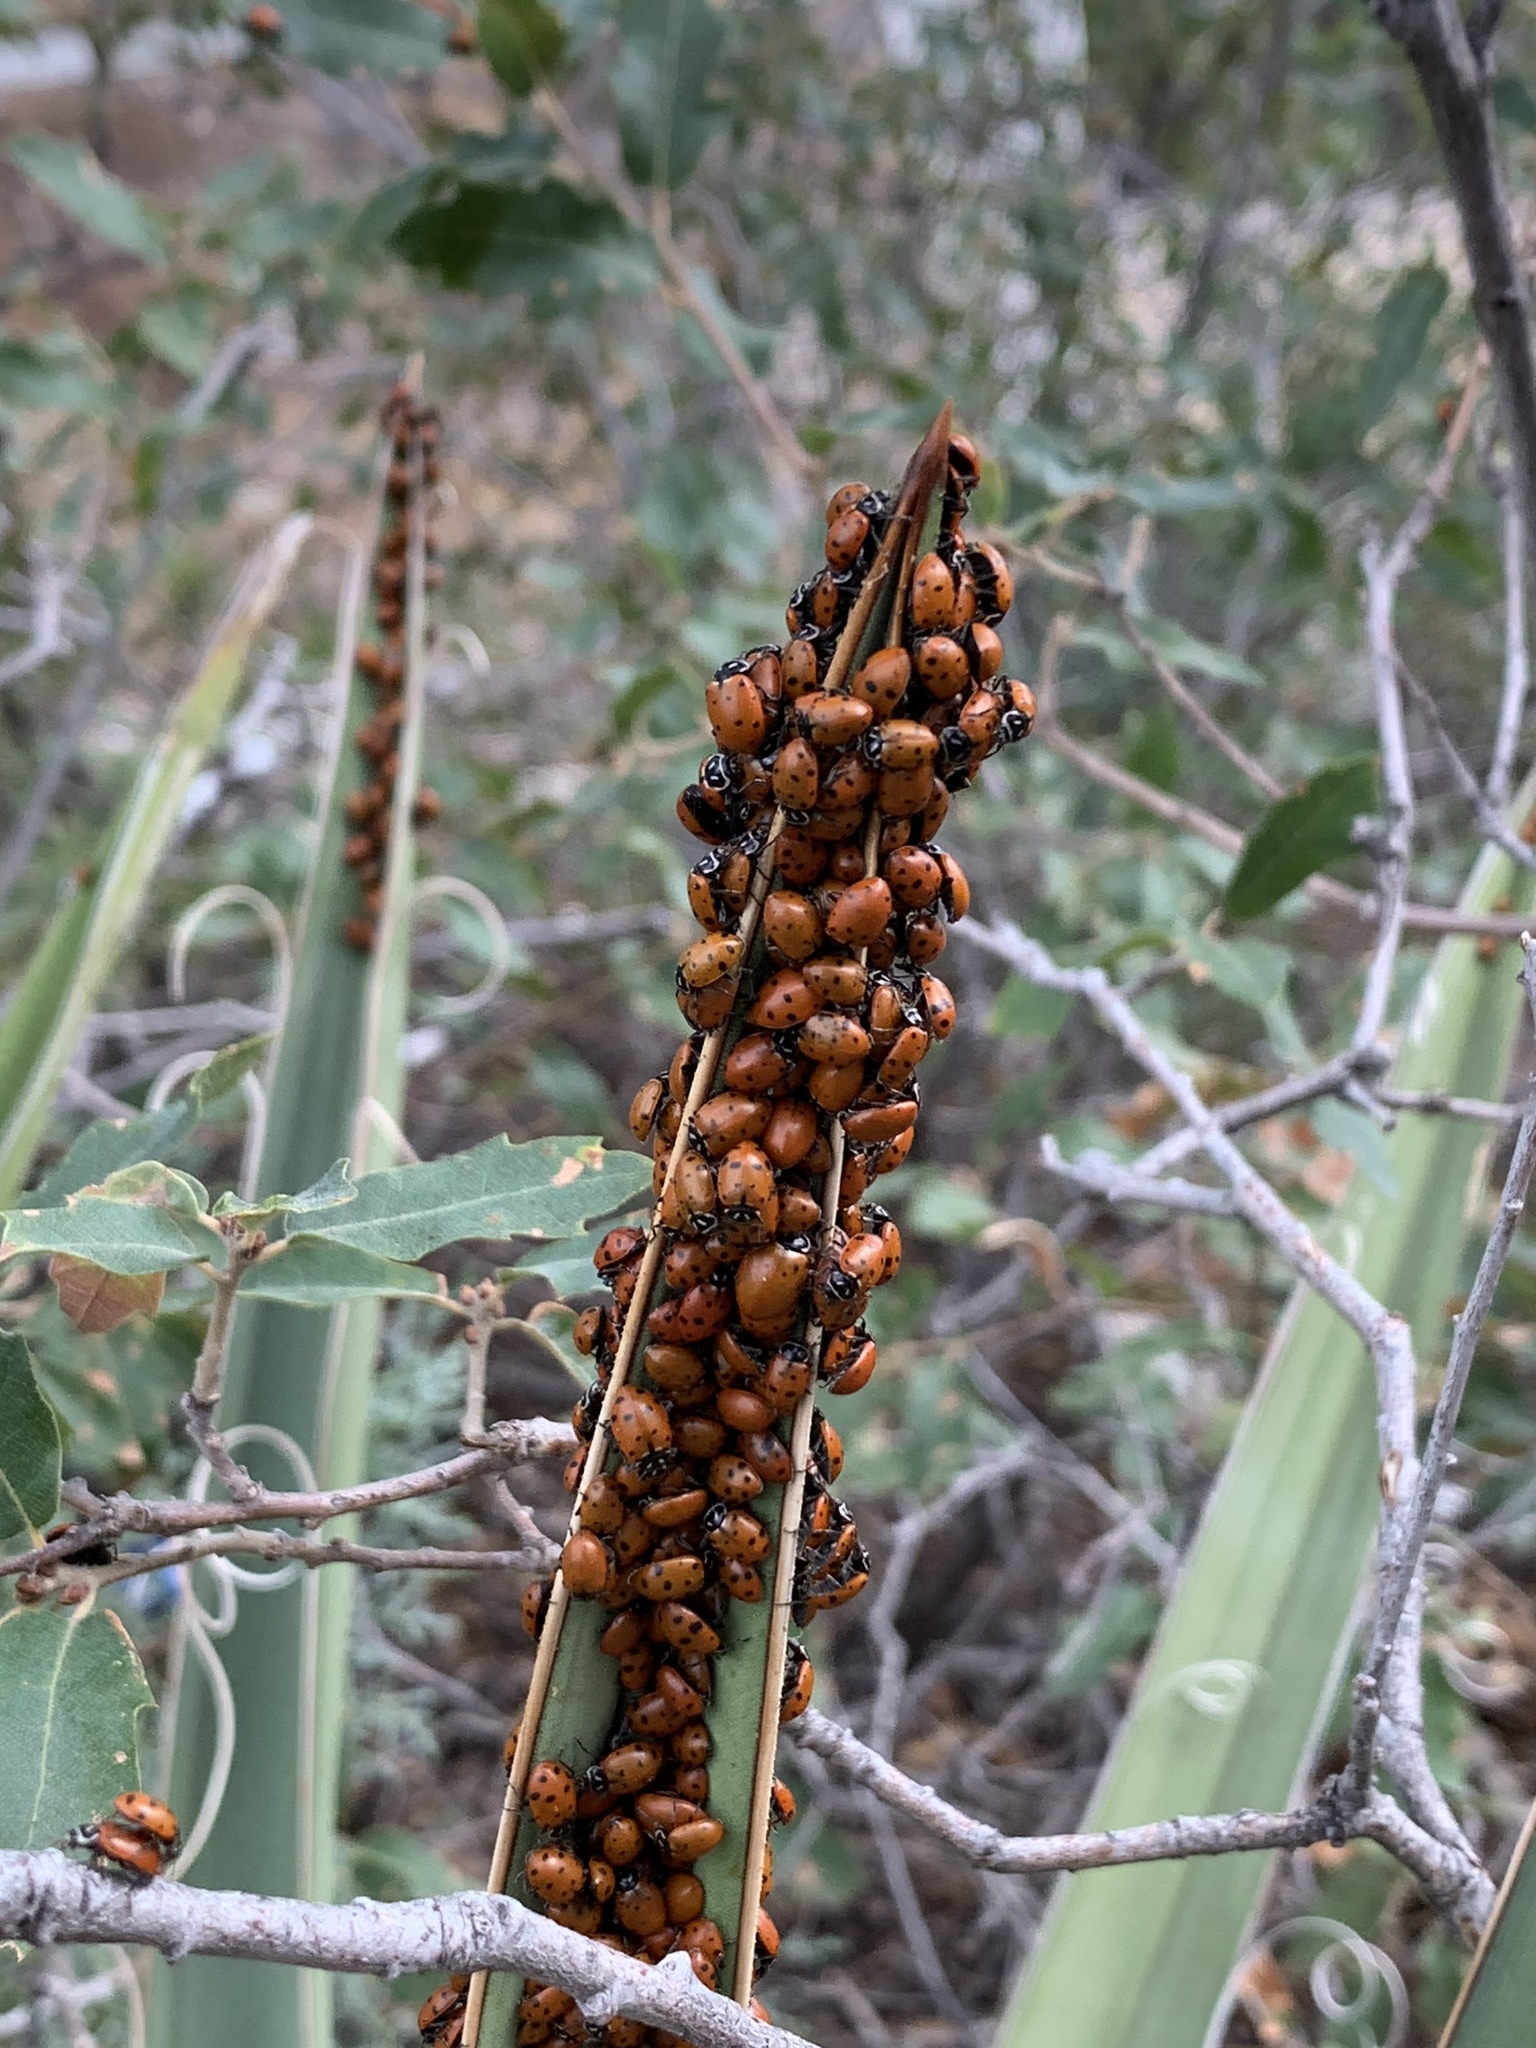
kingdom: Animalia
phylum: Arthropoda
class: Insecta
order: Coleoptera
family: Coccinellidae
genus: Hippodamia
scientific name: Hippodamia convergens
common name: Convergent lady beetle
